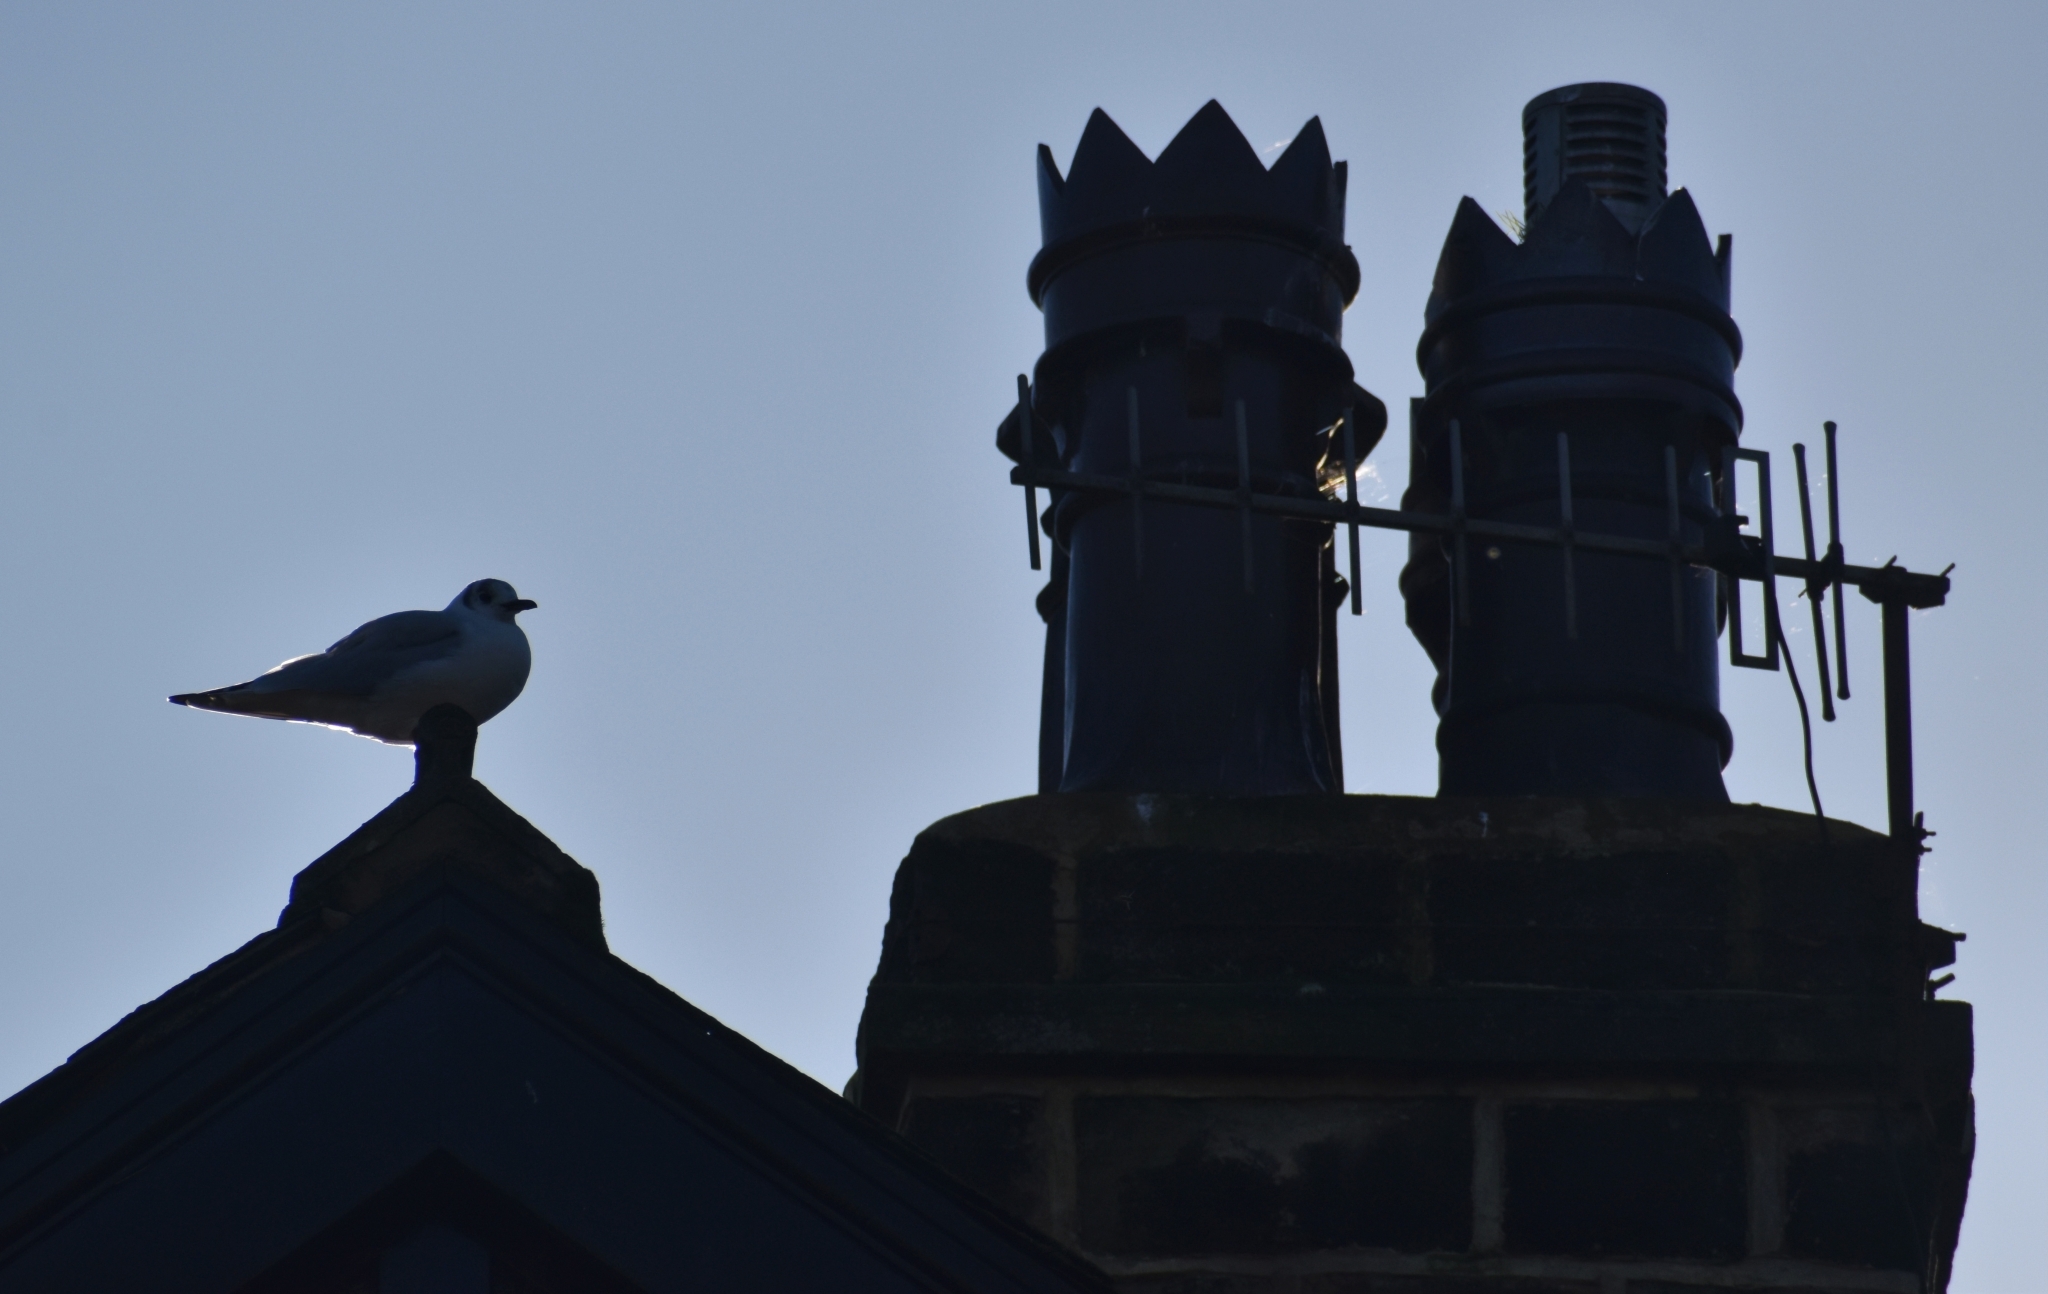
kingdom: Animalia
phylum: Chordata
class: Aves
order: Charadriiformes
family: Laridae
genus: Chroicocephalus
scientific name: Chroicocephalus ridibundus
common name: Black-headed gull
